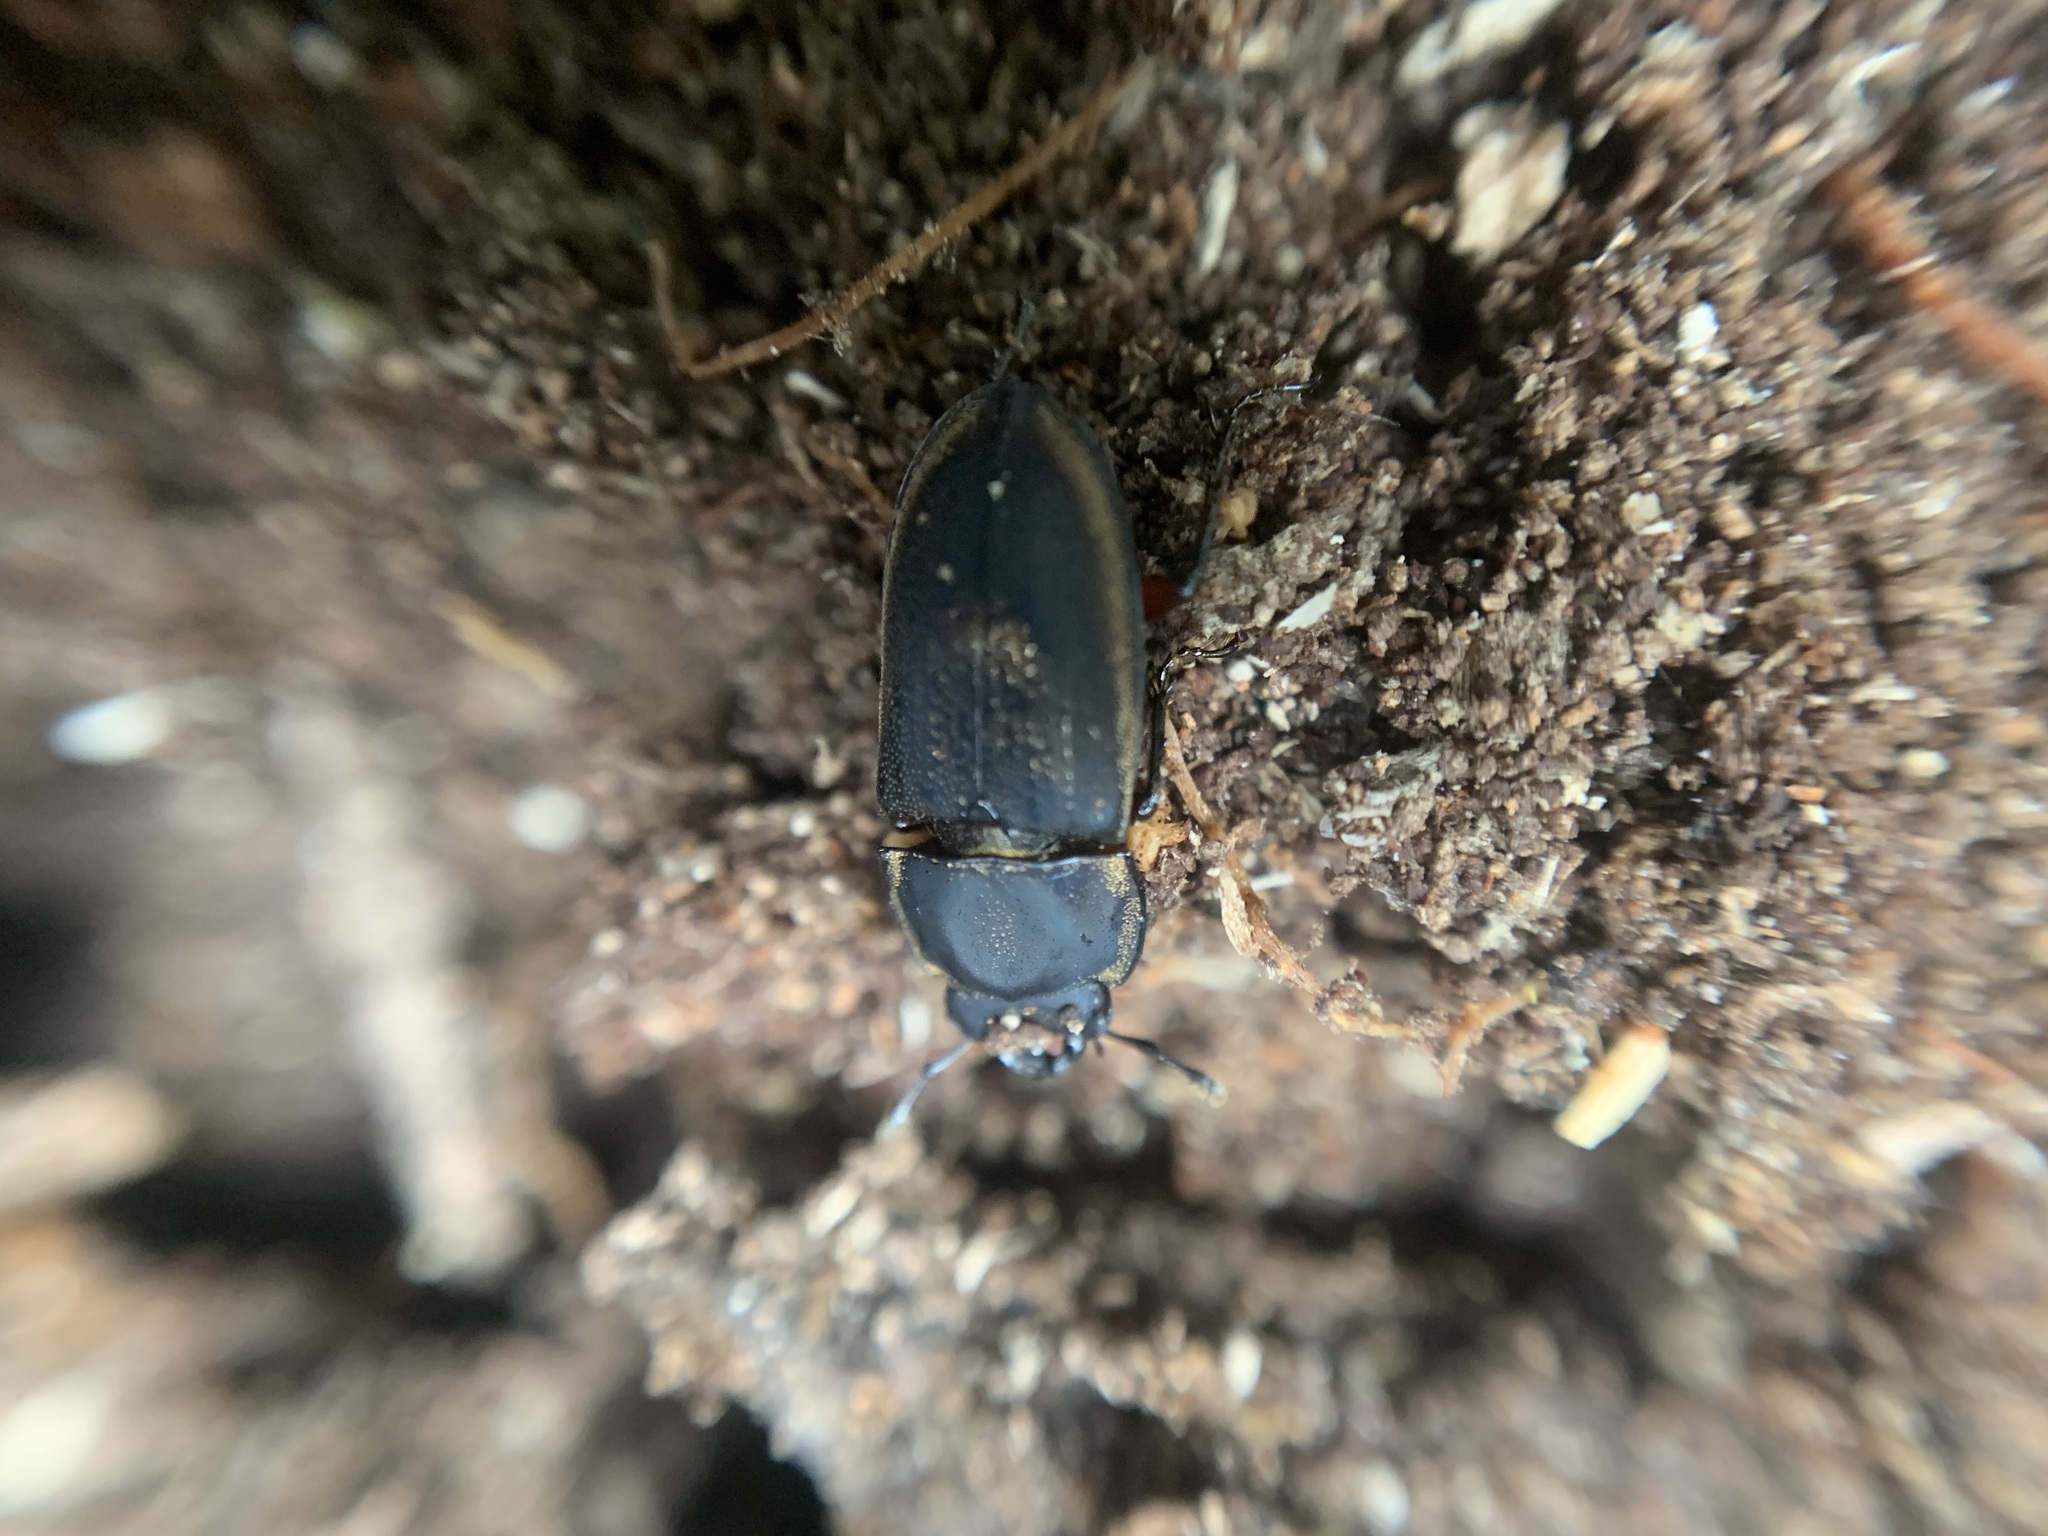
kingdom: Animalia
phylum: Arthropoda
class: Insecta
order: Coleoptera
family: Lucanidae
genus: Pycnosiphorus
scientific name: Pycnosiphorus lessonii
